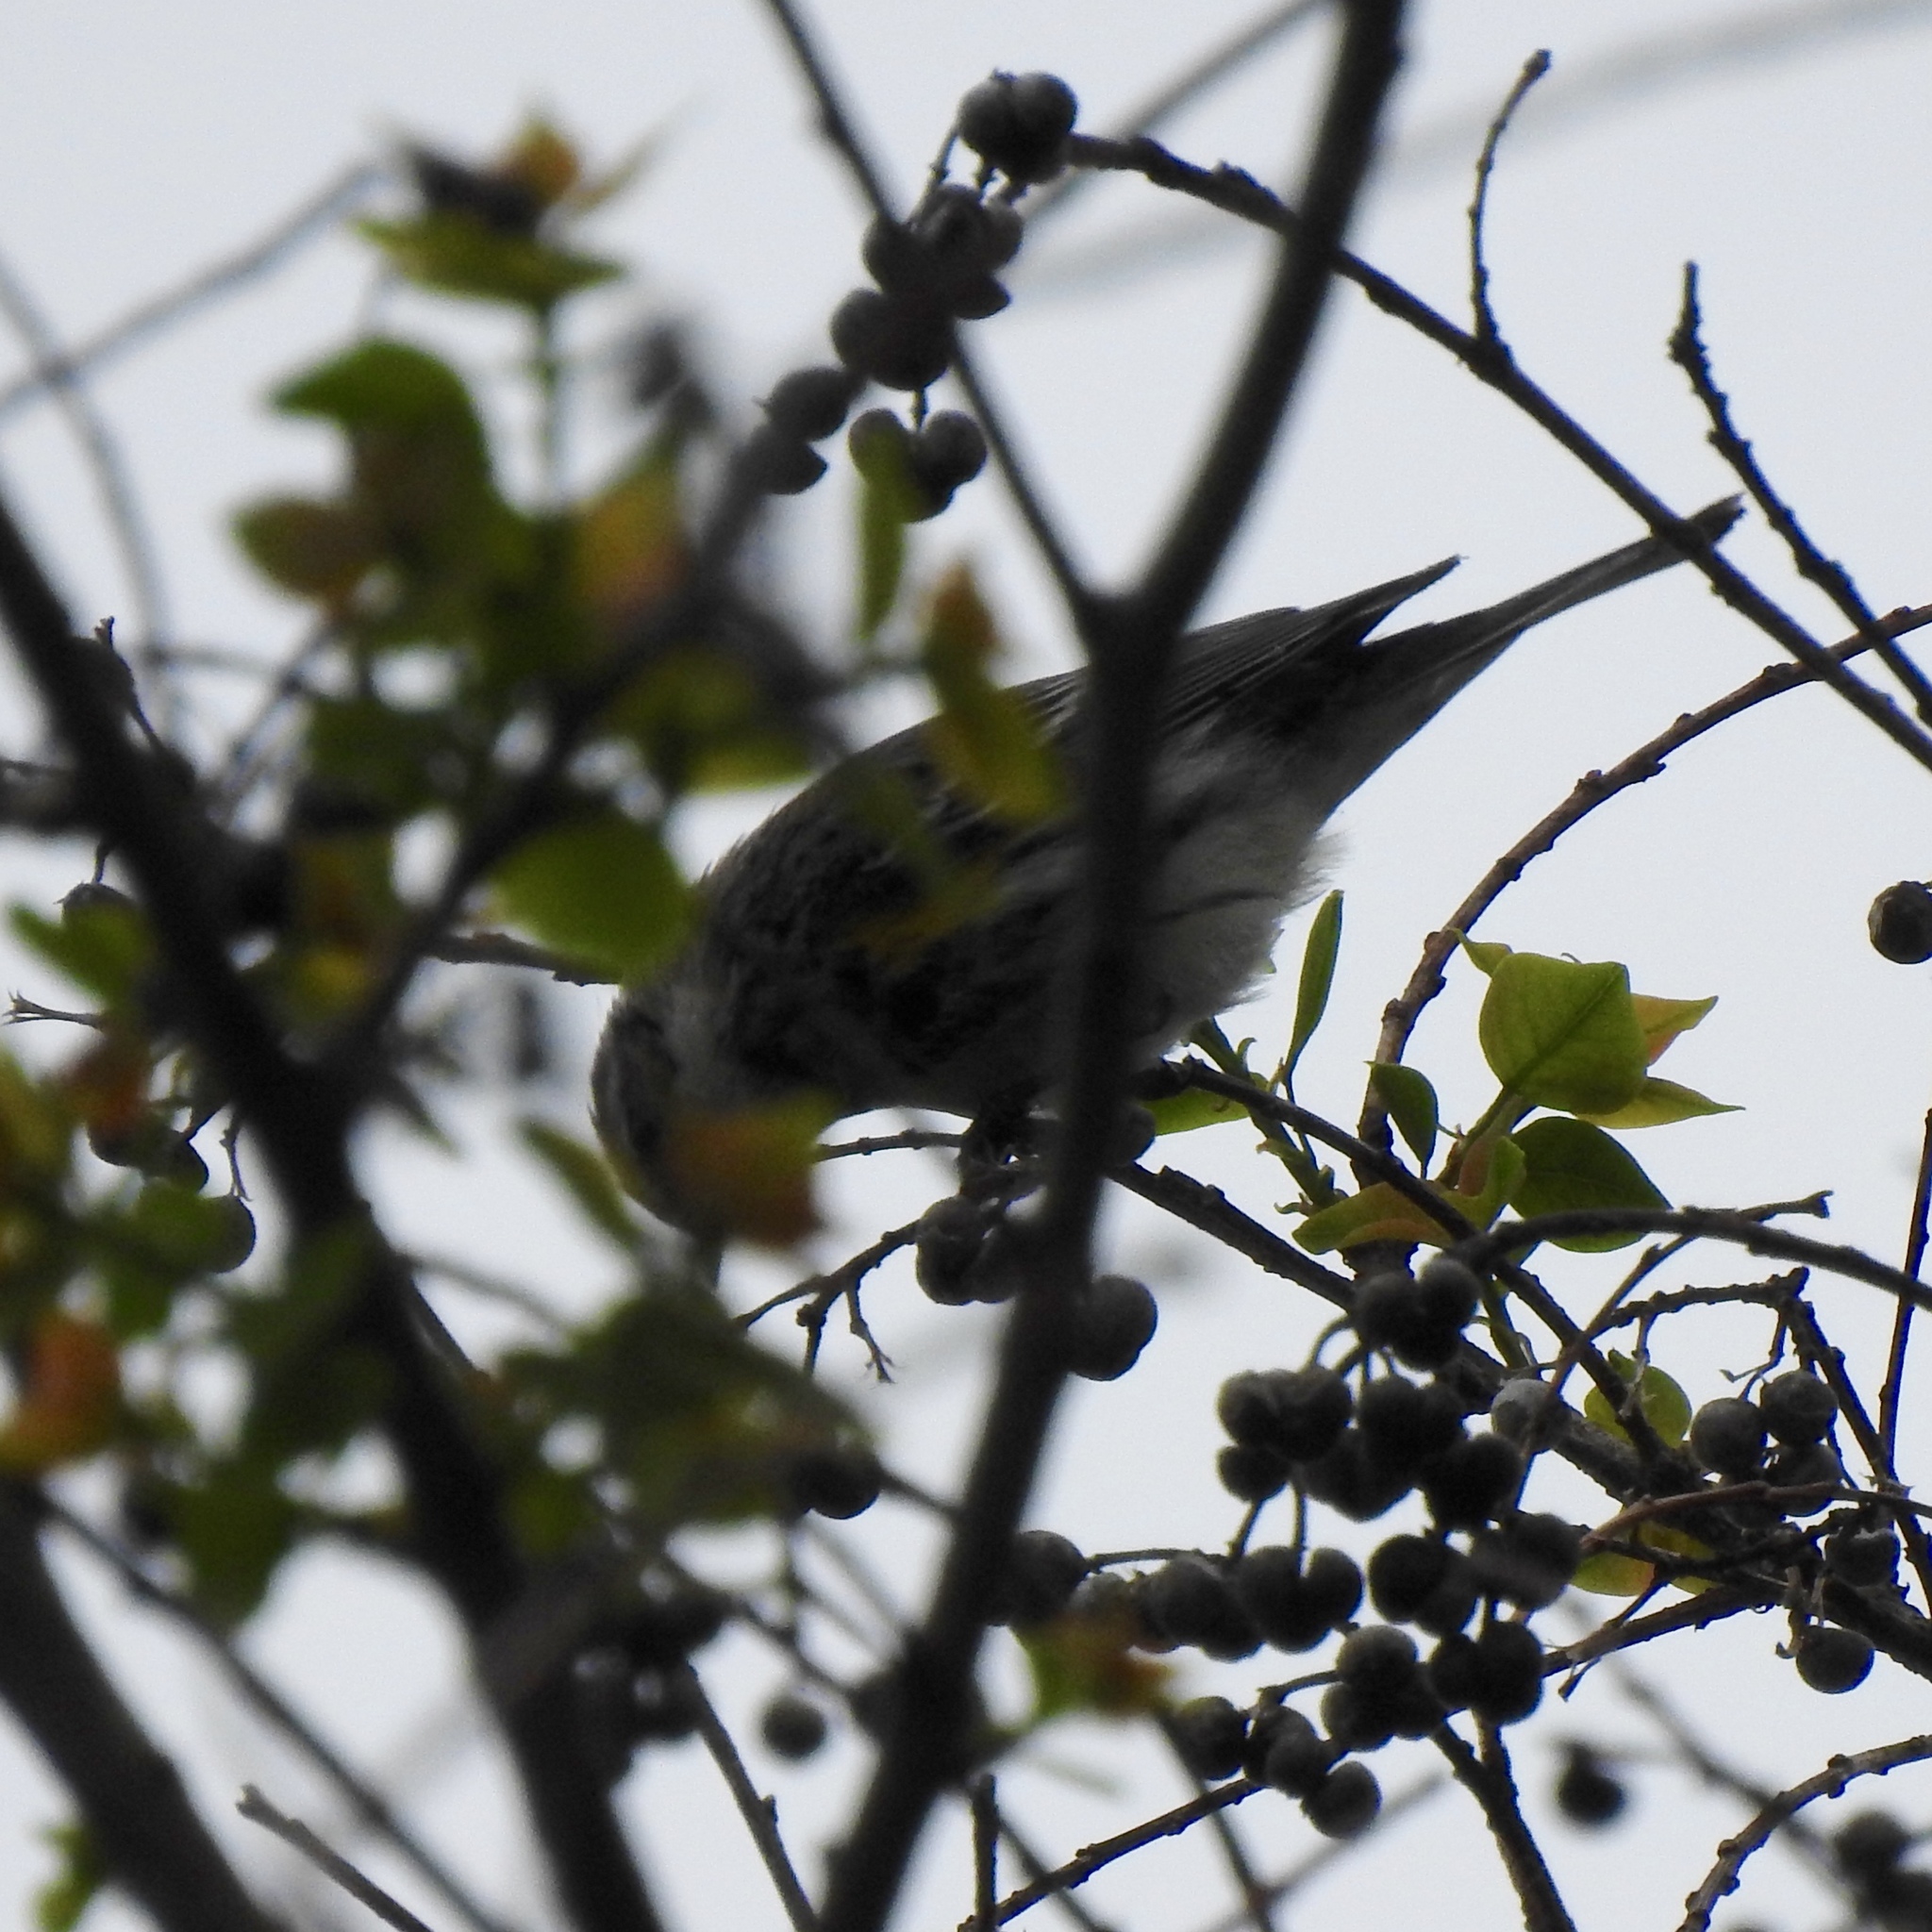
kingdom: Animalia
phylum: Chordata
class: Aves
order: Passeriformes
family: Parulidae
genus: Mniotilta
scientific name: Mniotilta varia
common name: Black-and-white warbler
